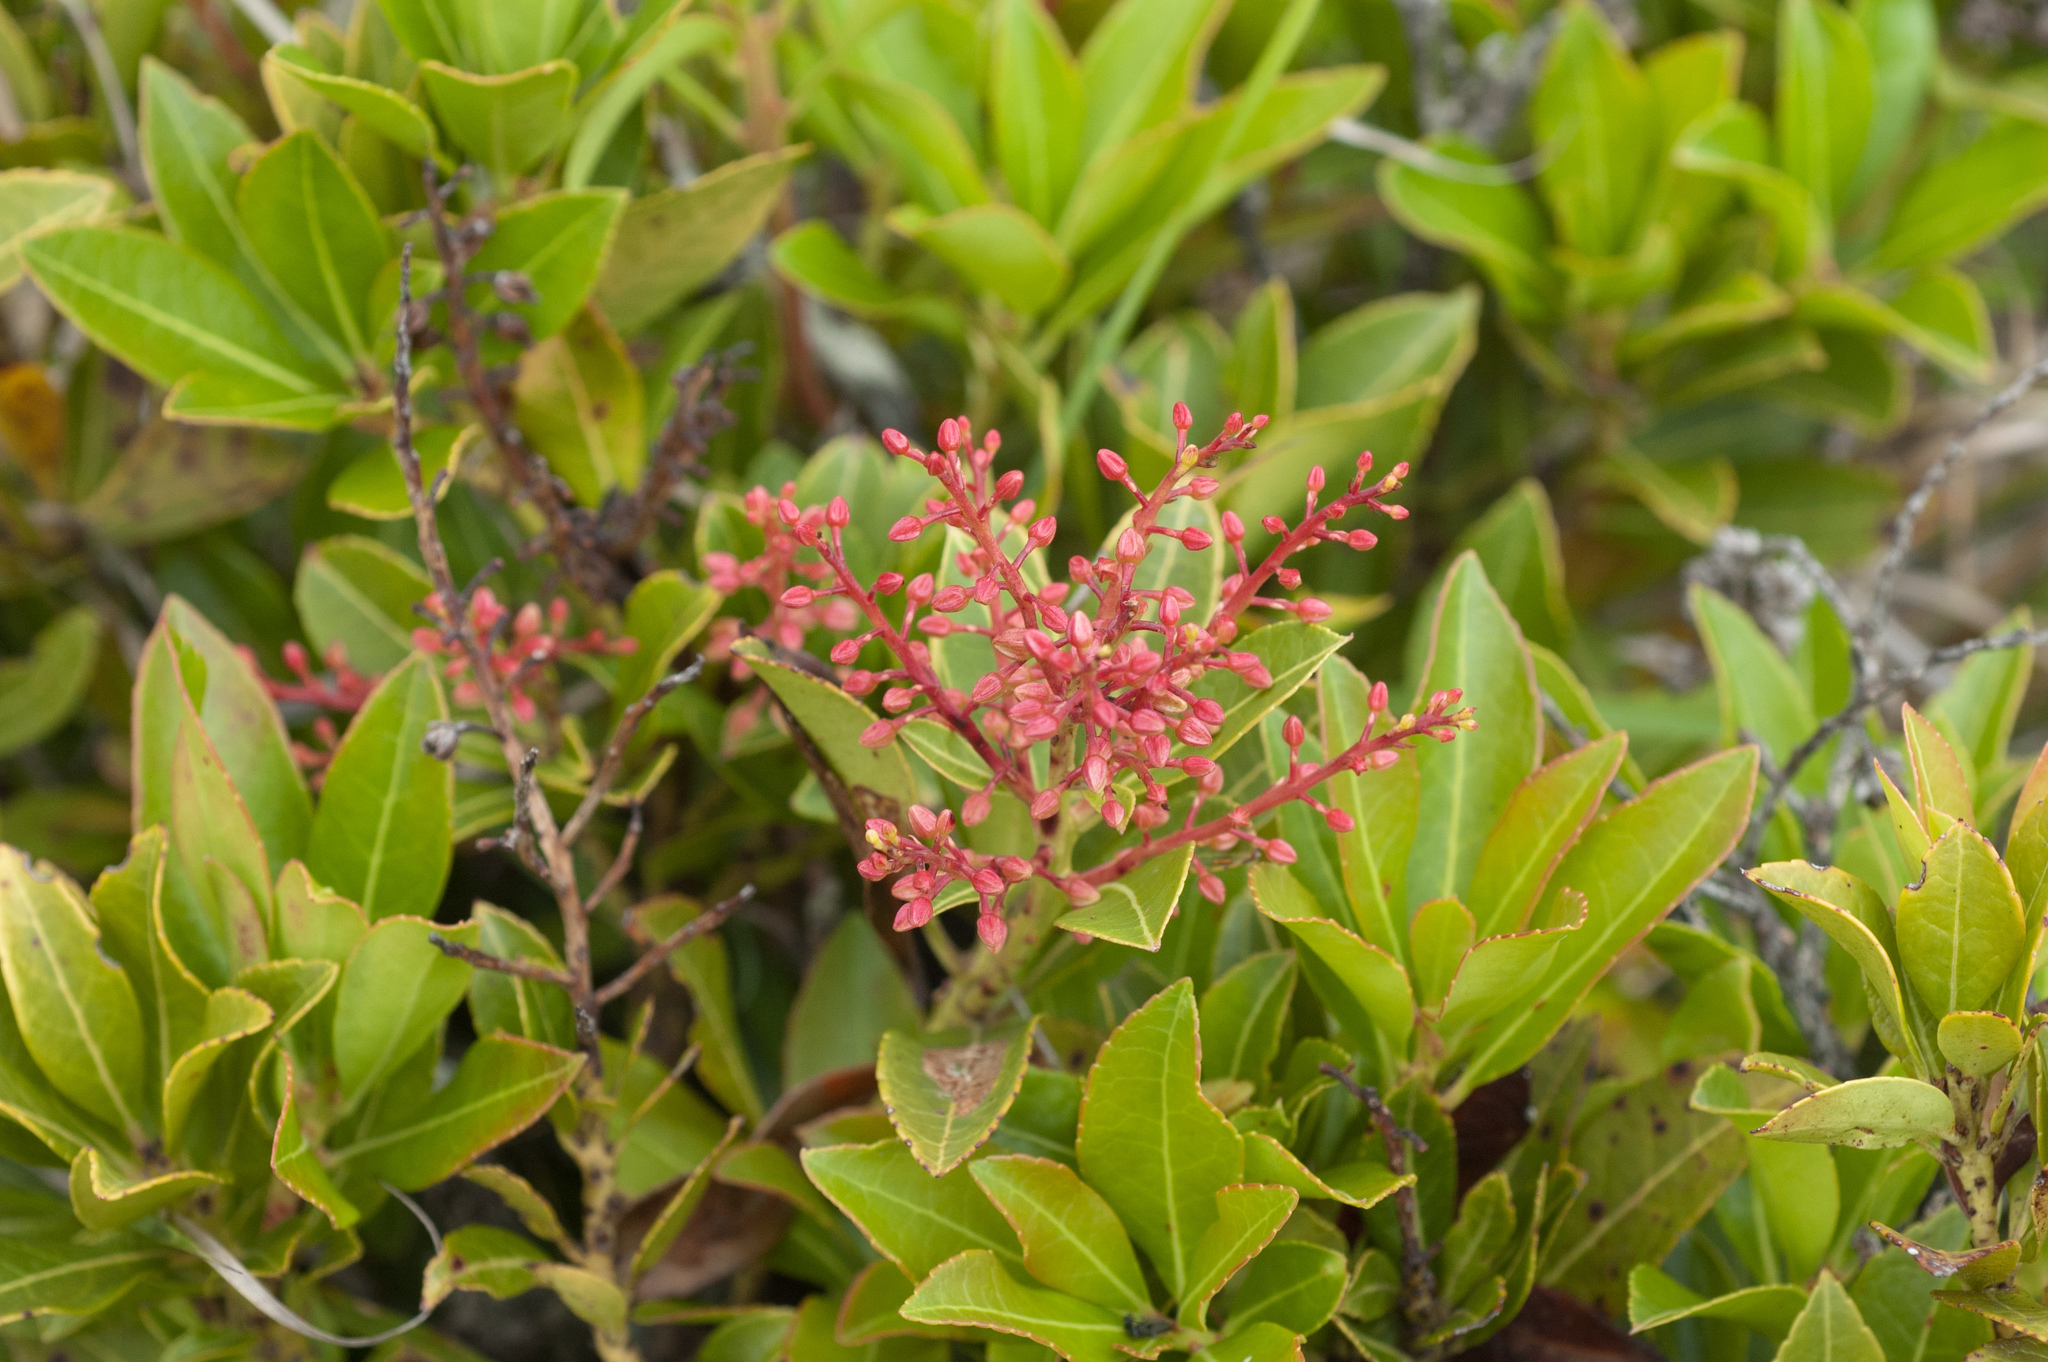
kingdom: Plantae
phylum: Tracheophyta
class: Magnoliopsida
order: Ericales
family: Ericaceae
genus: Pieris
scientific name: Pieris japonica
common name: Japanese pieris
